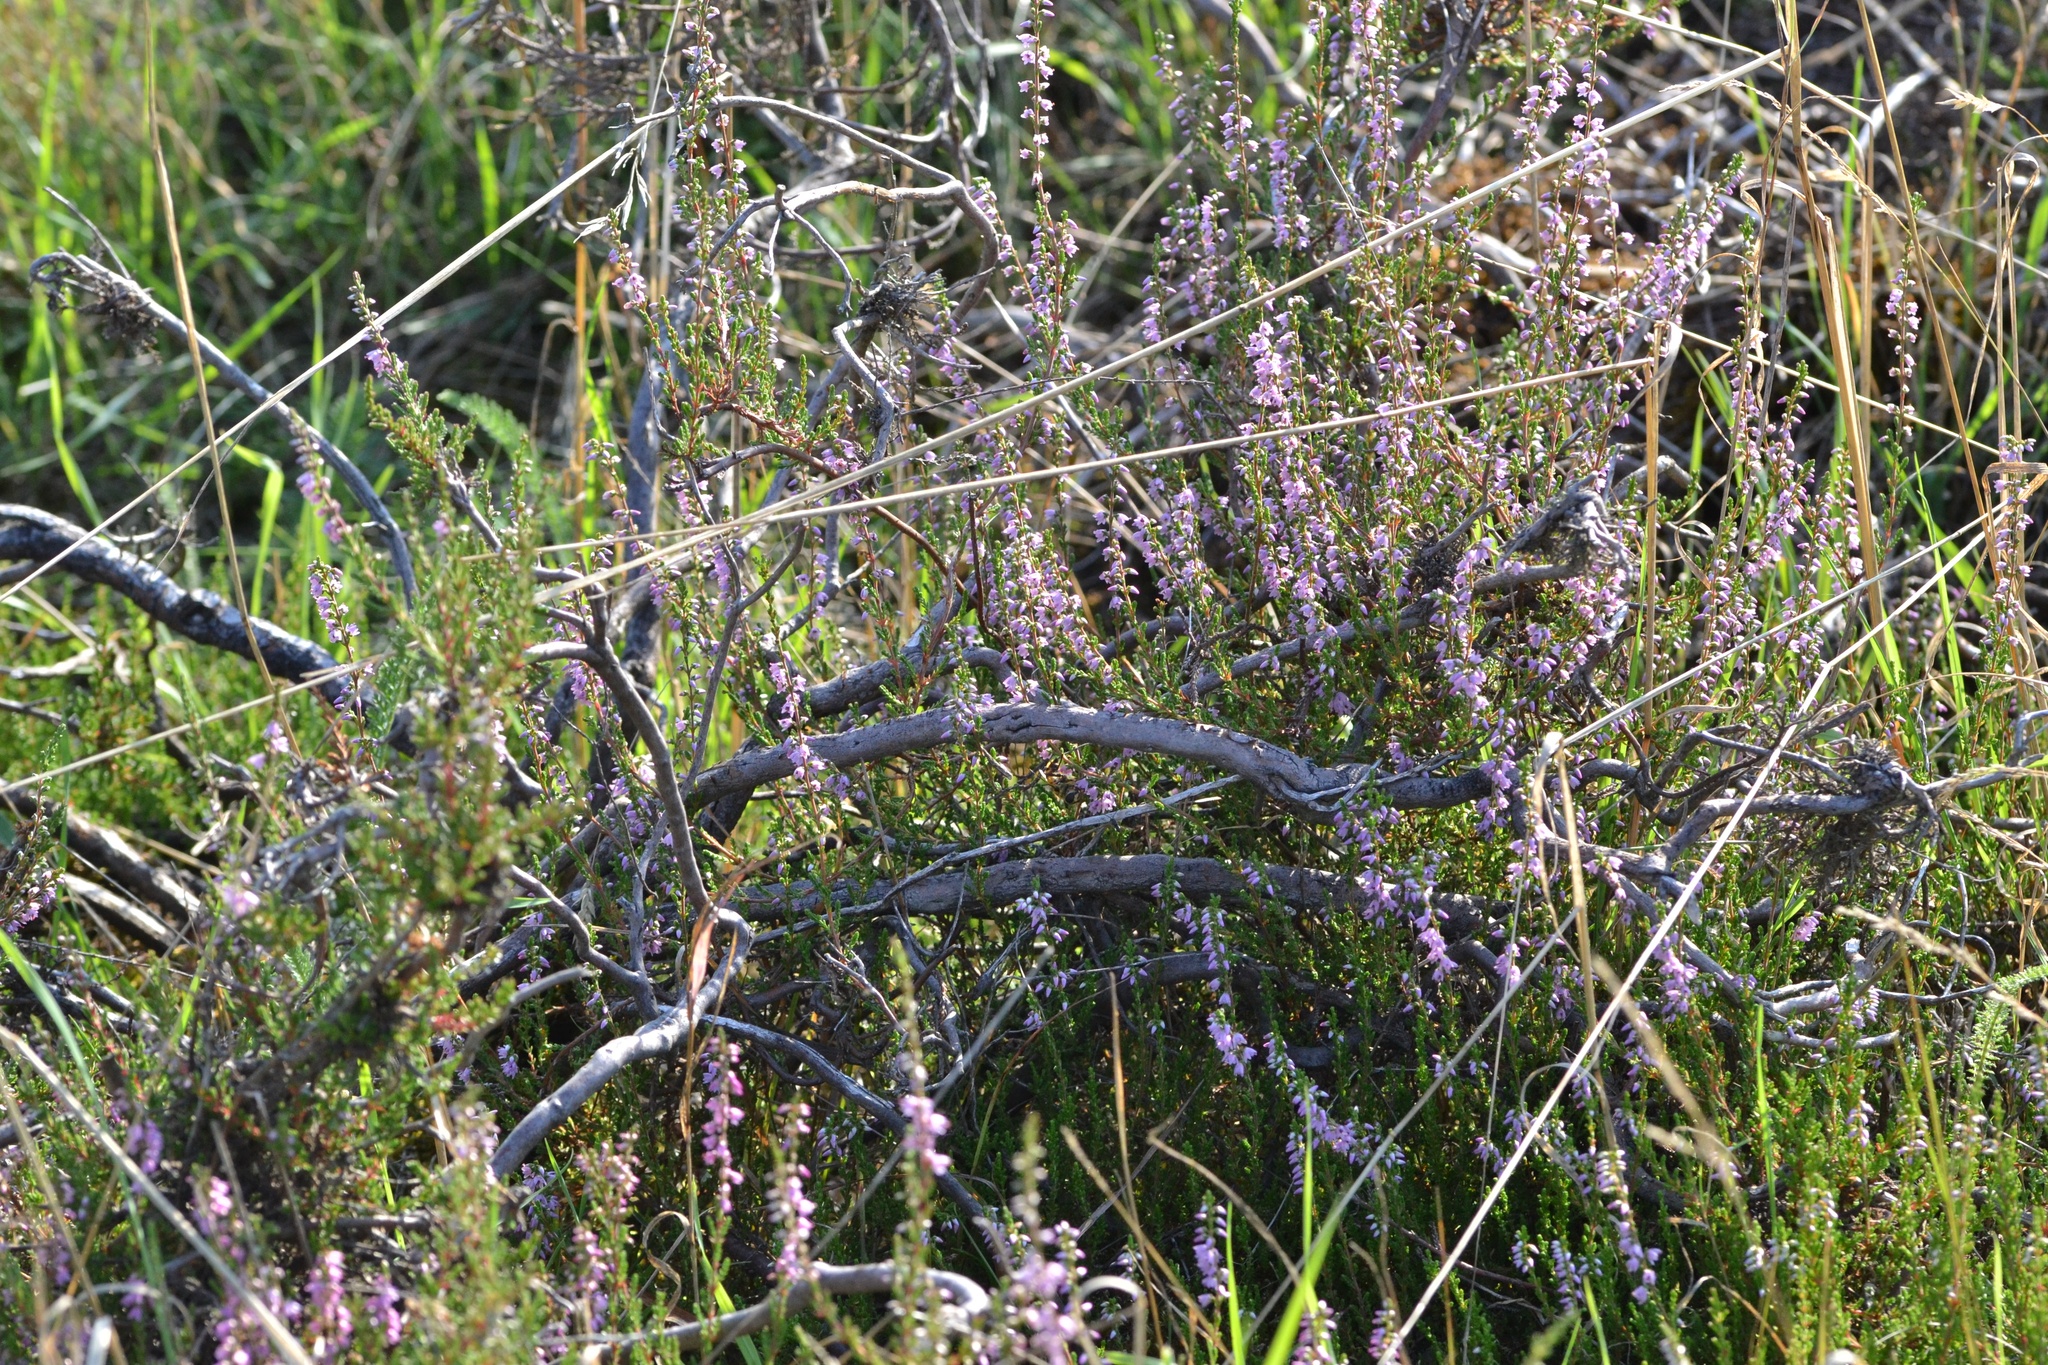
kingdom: Plantae
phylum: Tracheophyta
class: Magnoliopsida
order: Ericales
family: Ericaceae
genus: Calluna
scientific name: Calluna vulgaris
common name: Heather
